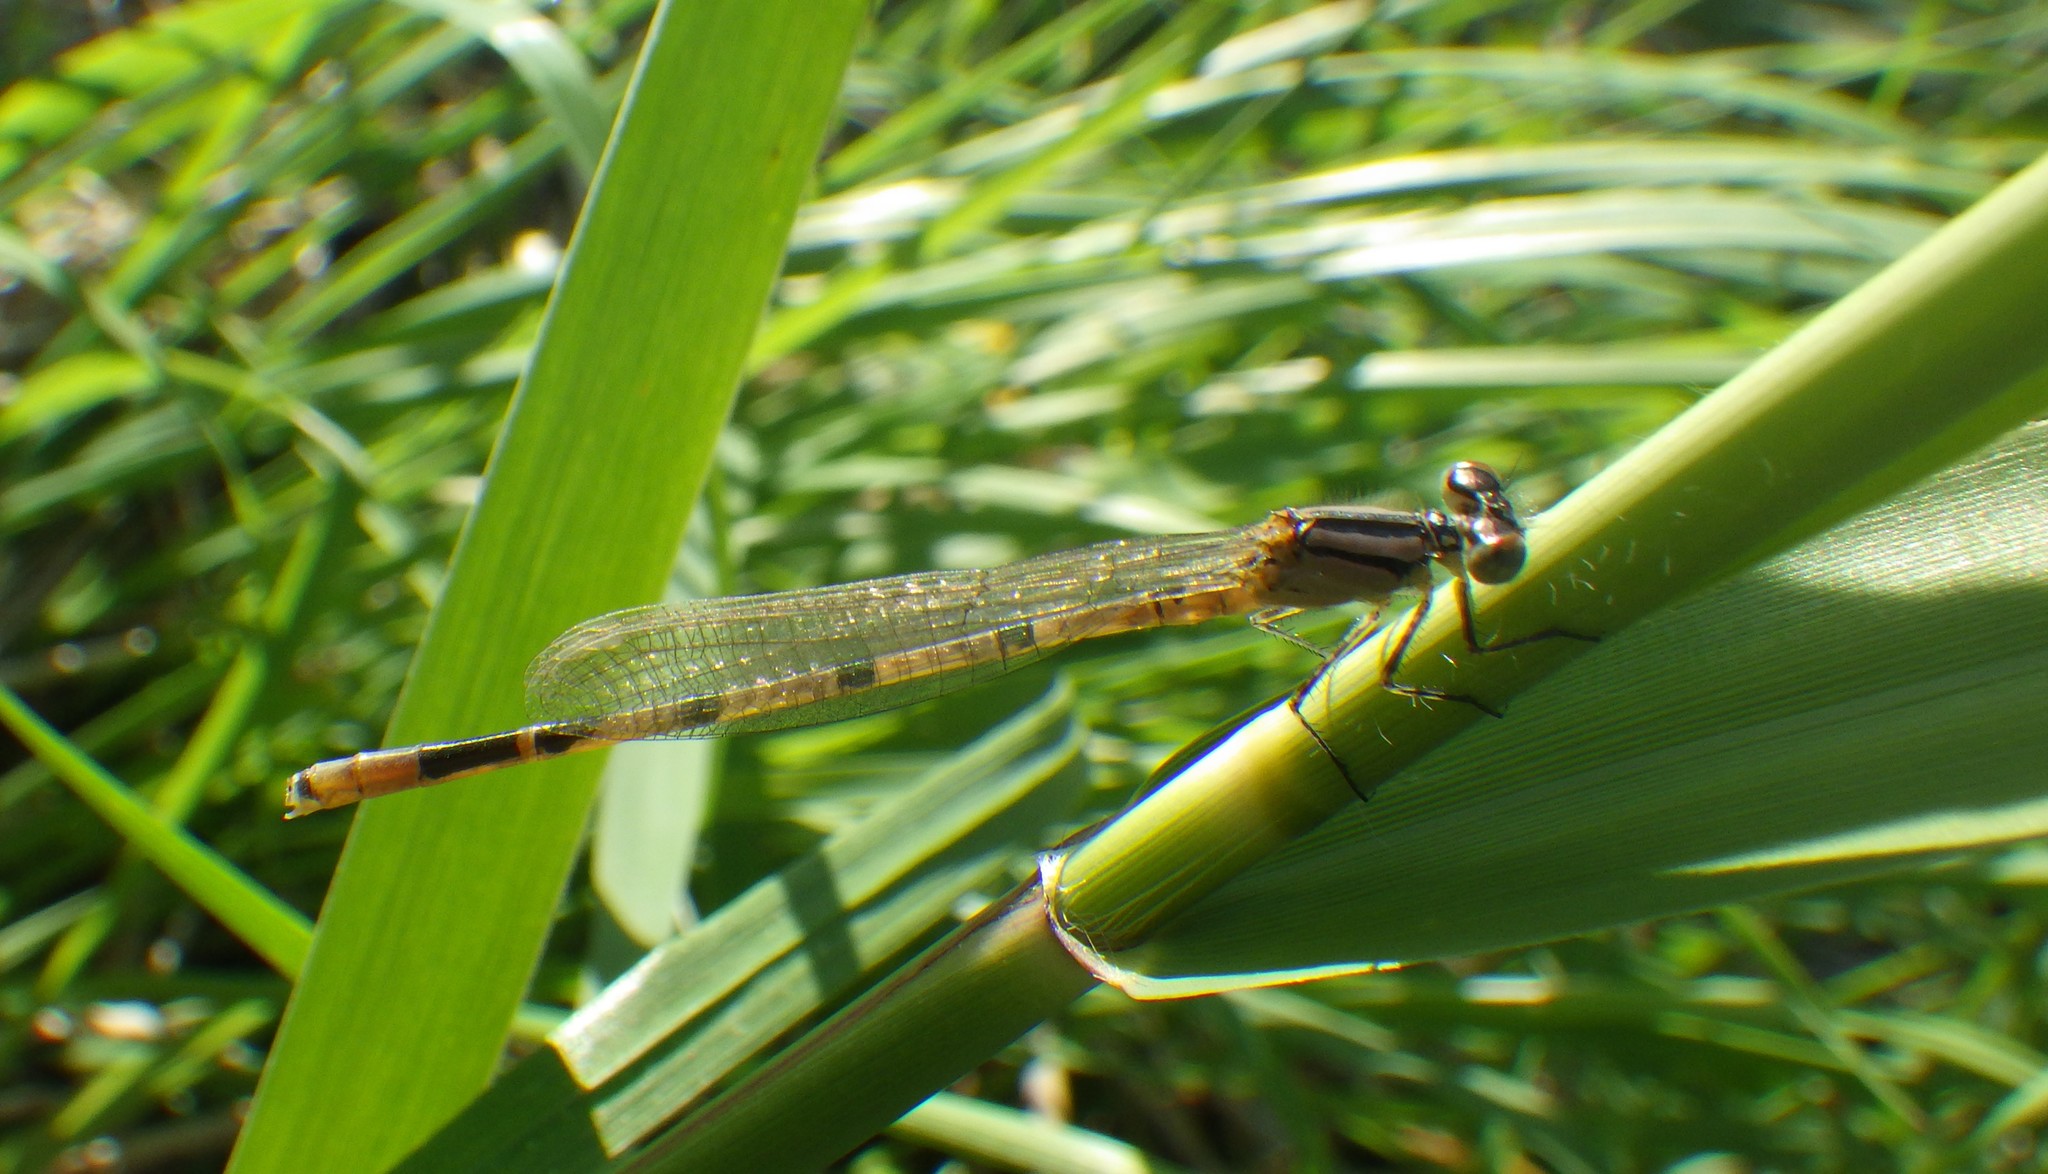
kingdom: Animalia
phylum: Arthropoda
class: Insecta
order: Odonata
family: Coenagrionidae
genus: Enallagma
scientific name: Enallagma cyathigerum
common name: Common blue damselfly
